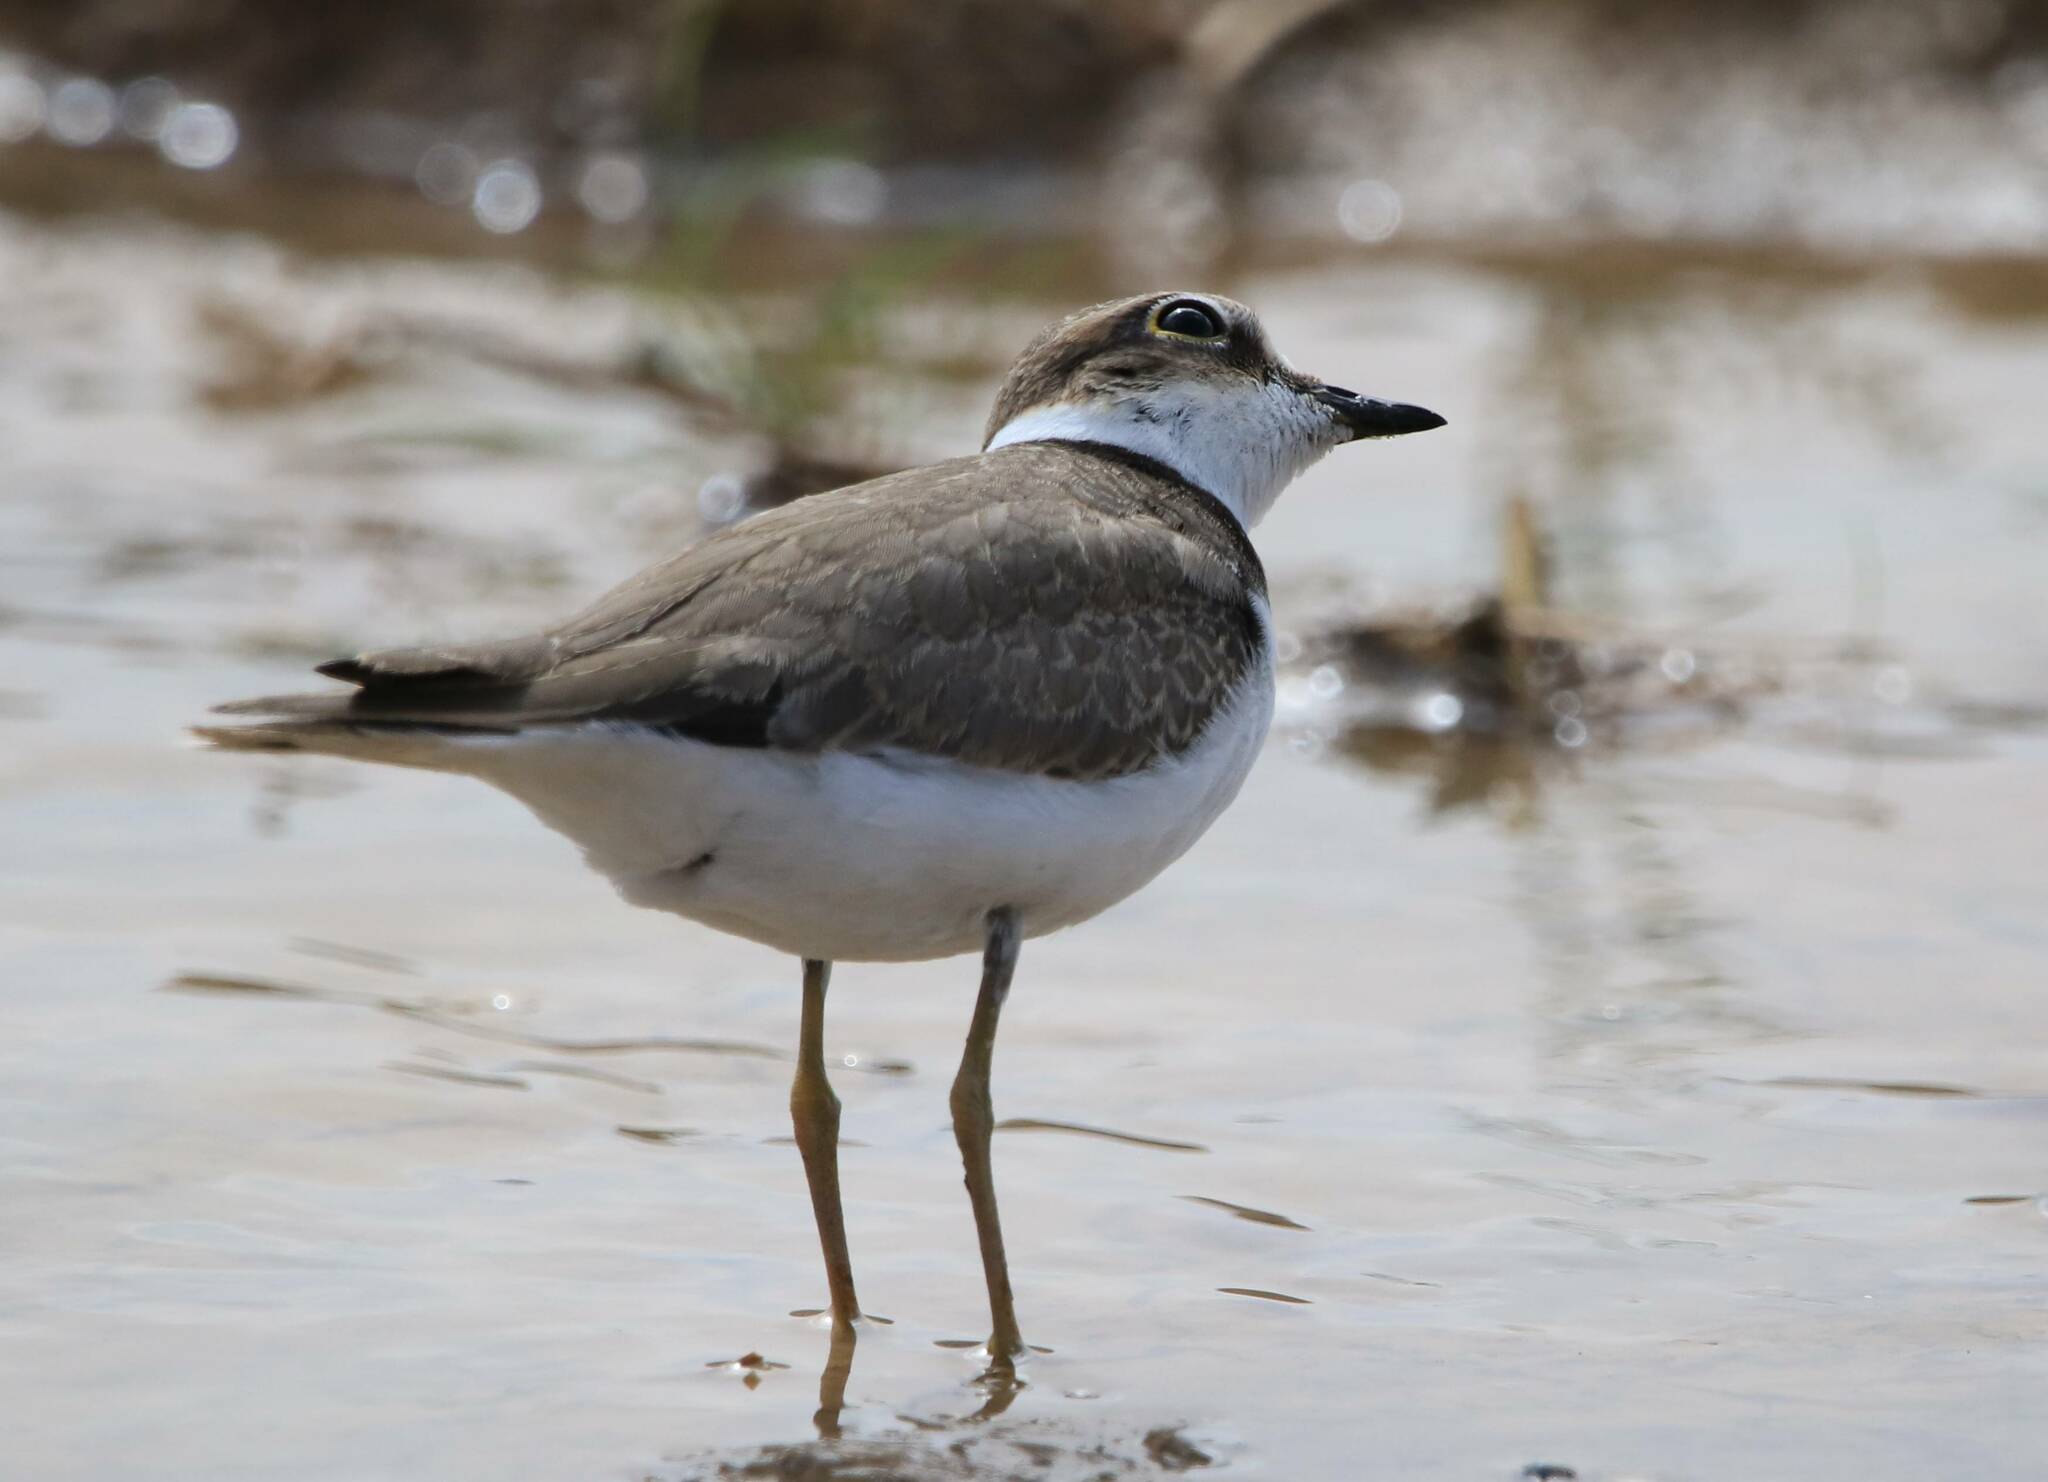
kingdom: Animalia
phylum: Chordata
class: Aves
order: Charadriiformes
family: Charadriidae
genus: Charadrius
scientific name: Charadrius dubius
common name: Little ringed plover
